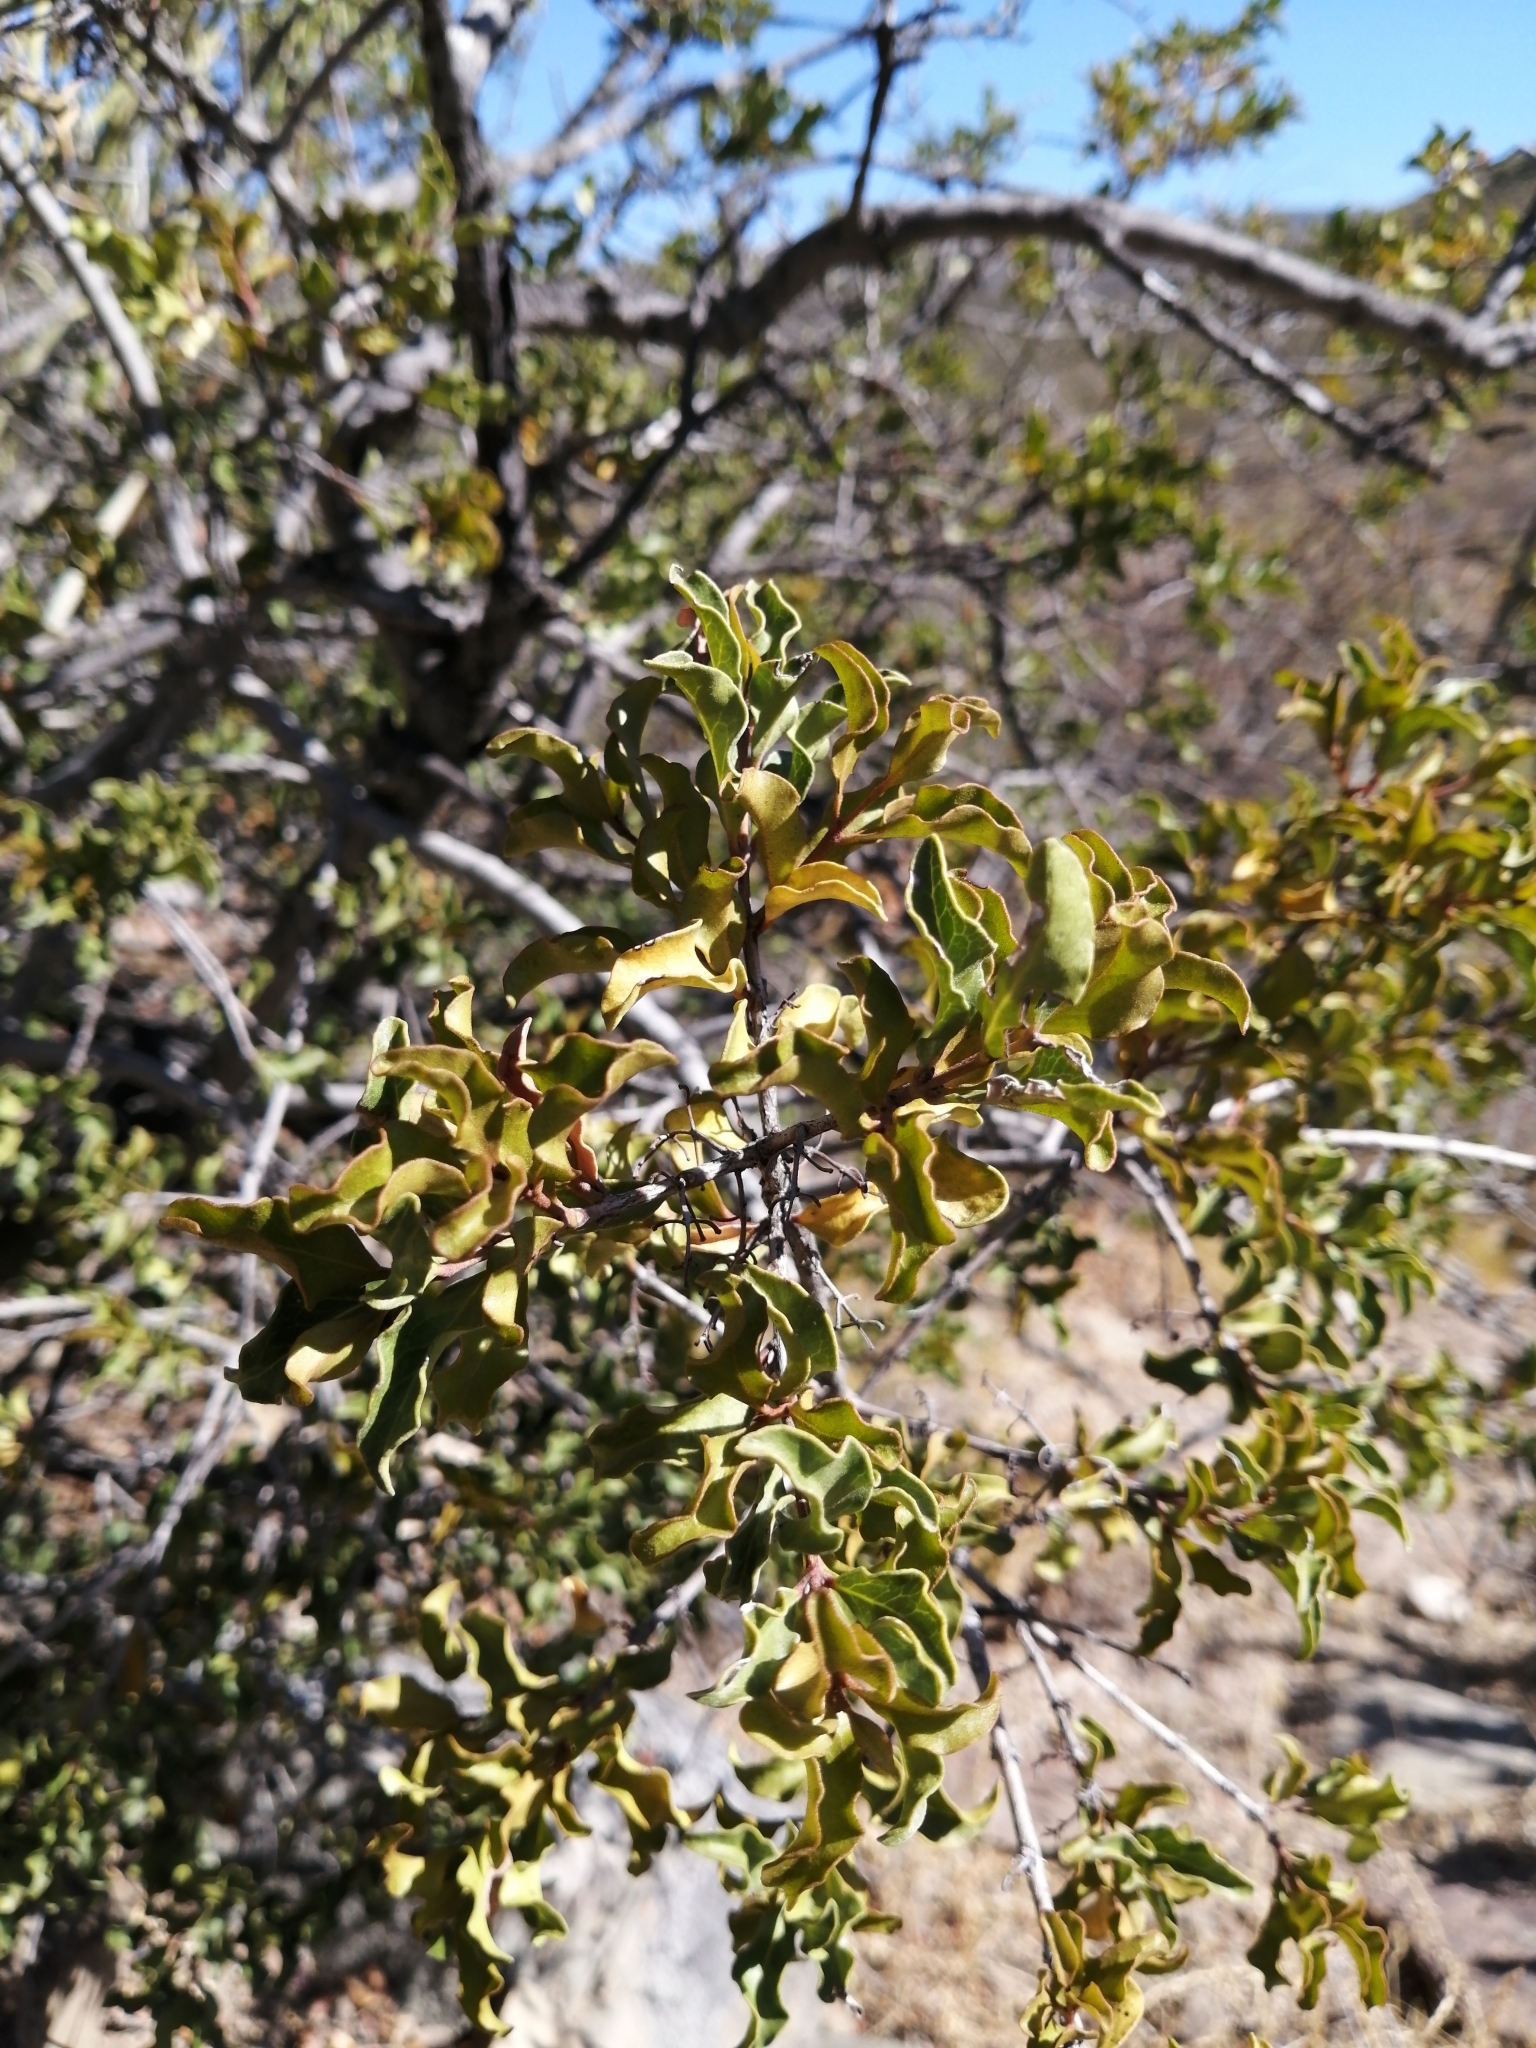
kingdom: Plantae
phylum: Tracheophyta
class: Magnoliopsida
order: Ericales
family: Ebenaceae
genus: Euclea
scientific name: Euclea undulata
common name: Small-leaved guarri
